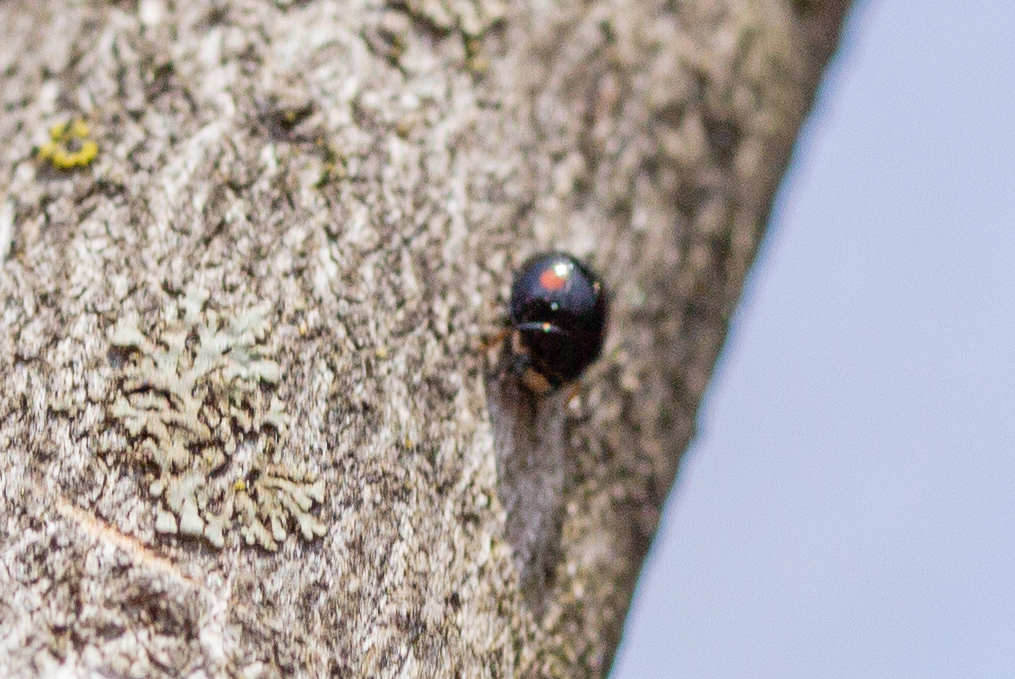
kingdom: Animalia
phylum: Arthropoda
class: Insecta
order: Coleoptera
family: Coccinellidae
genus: Chilocorus
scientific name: Chilocorus stigma
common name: Twicestabbed lady beetle
